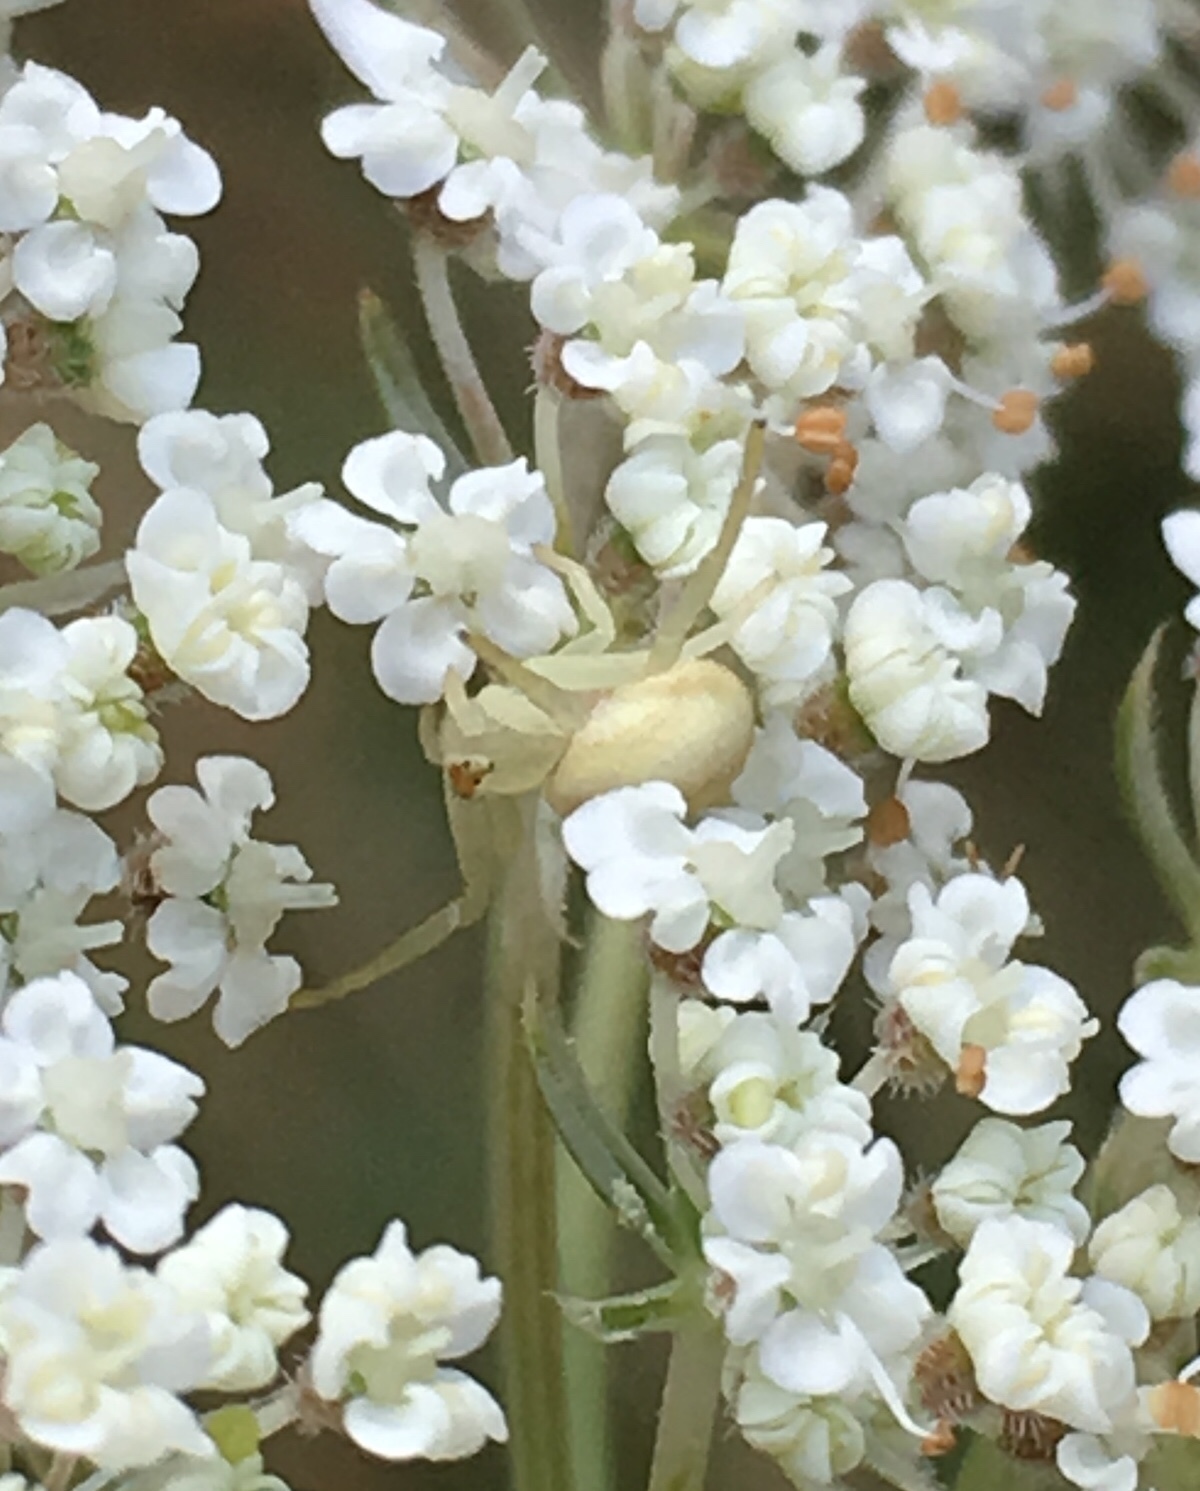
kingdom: Animalia
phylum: Arthropoda
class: Arachnida
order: Araneae
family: Thomisidae
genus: Misumena
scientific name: Misumena vatia
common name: Goldenrod crab spider
